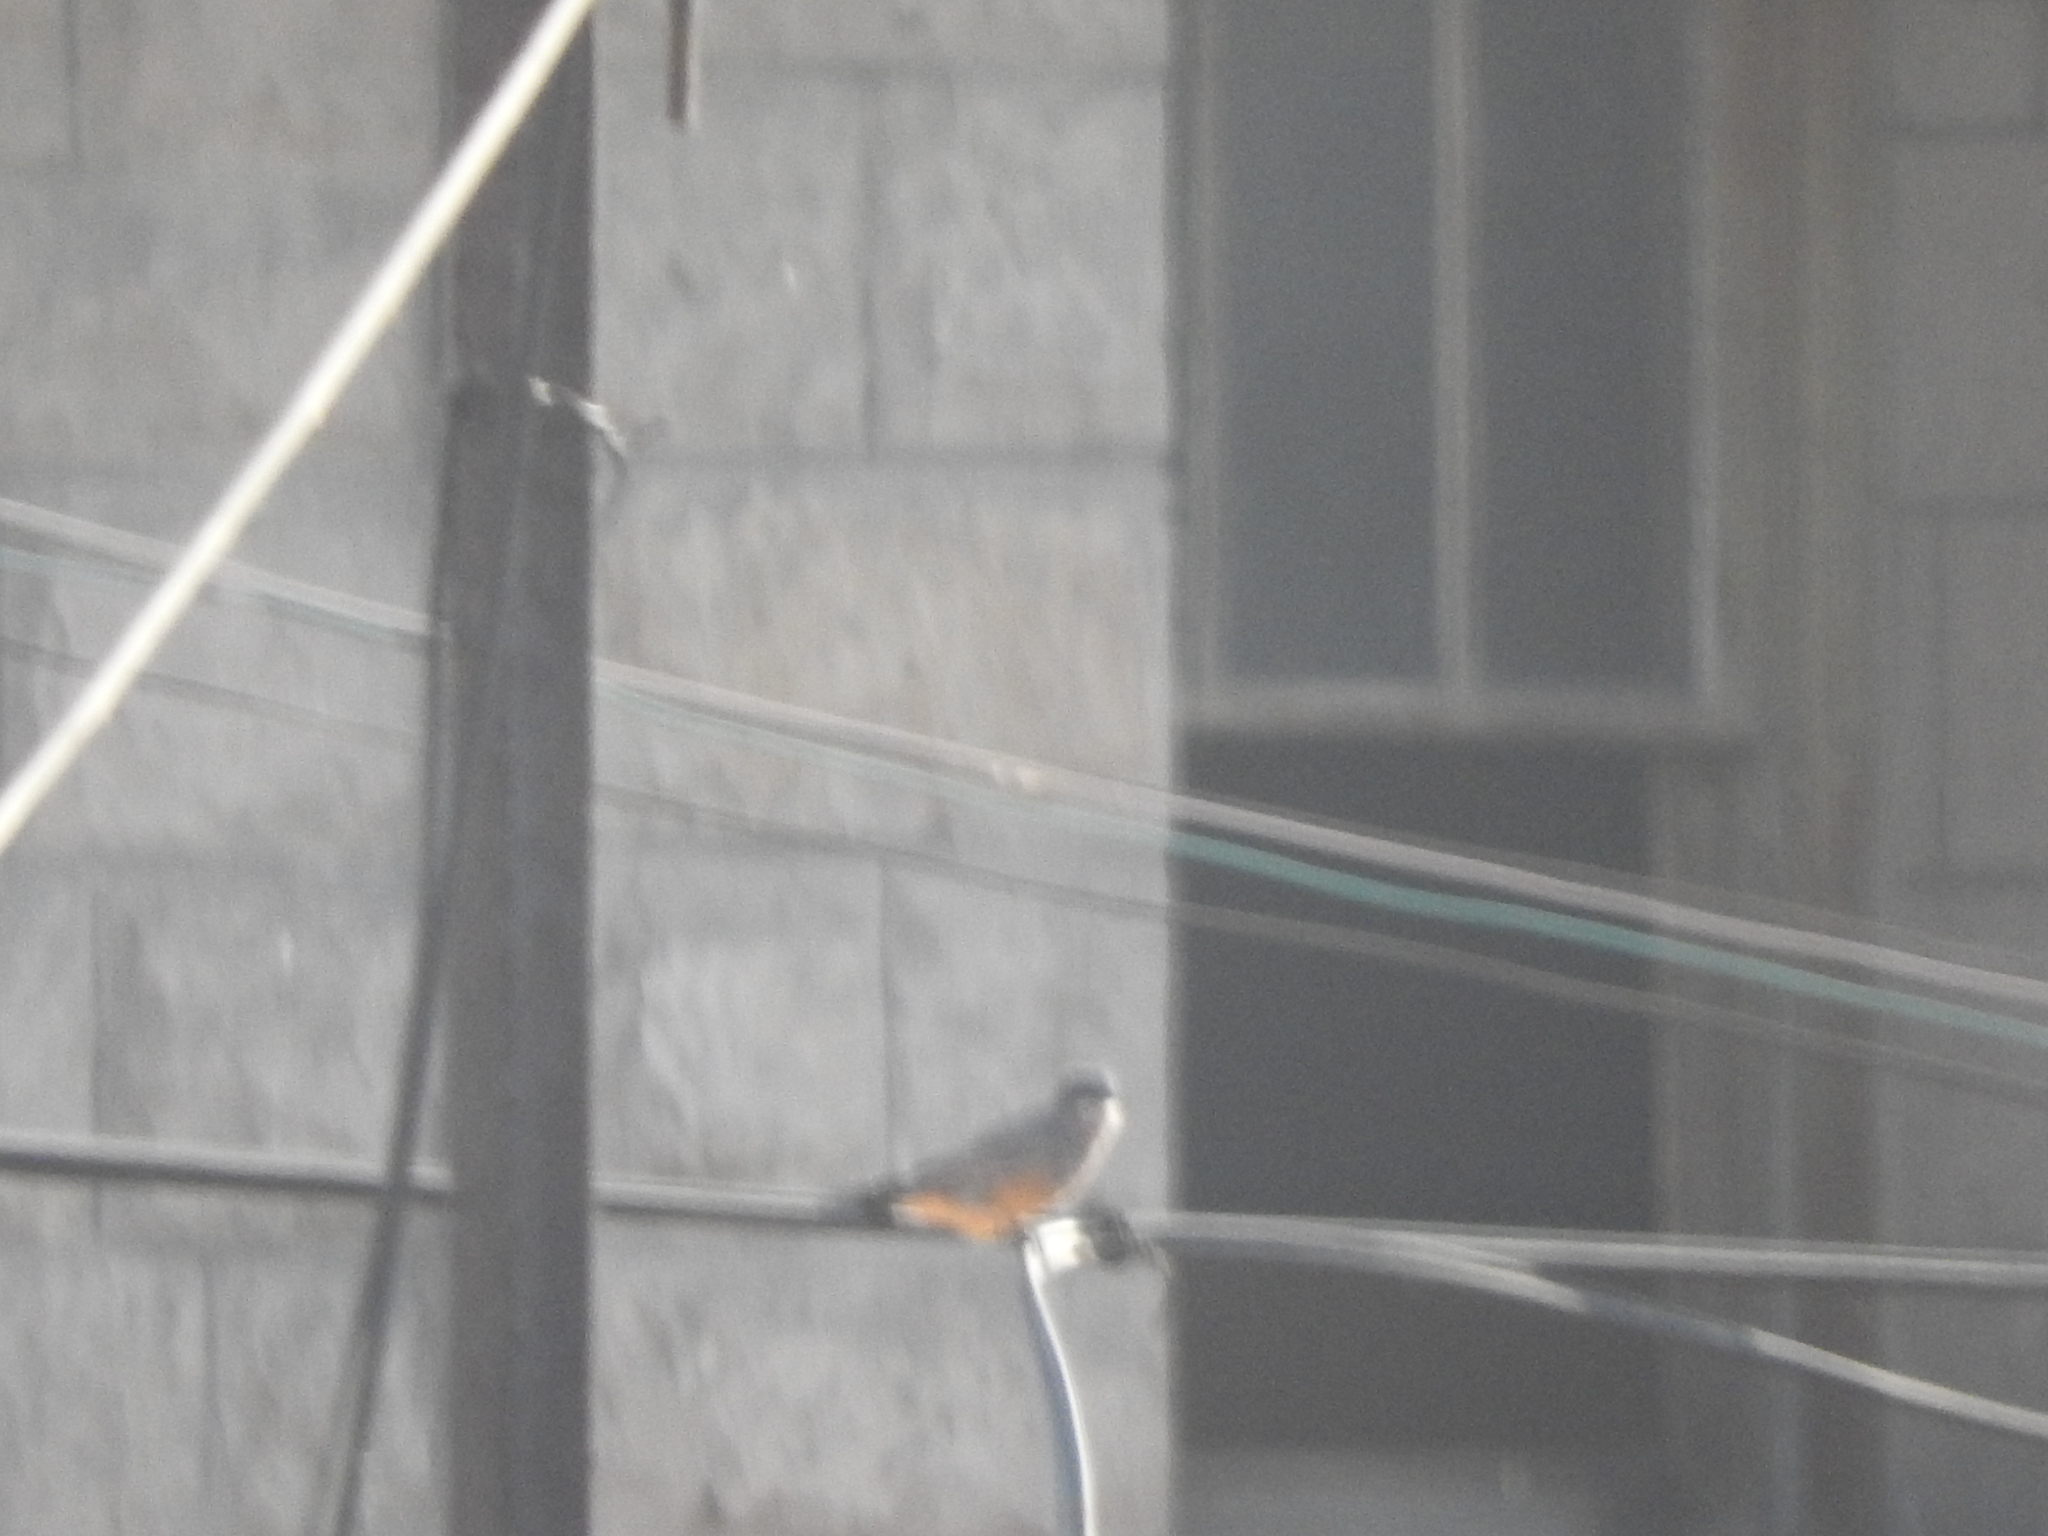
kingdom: Animalia
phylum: Chordata
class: Aves
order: Passeriformes
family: Tyrannidae
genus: Pyrocephalus
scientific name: Pyrocephalus rubinus
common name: Vermilion flycatcher
